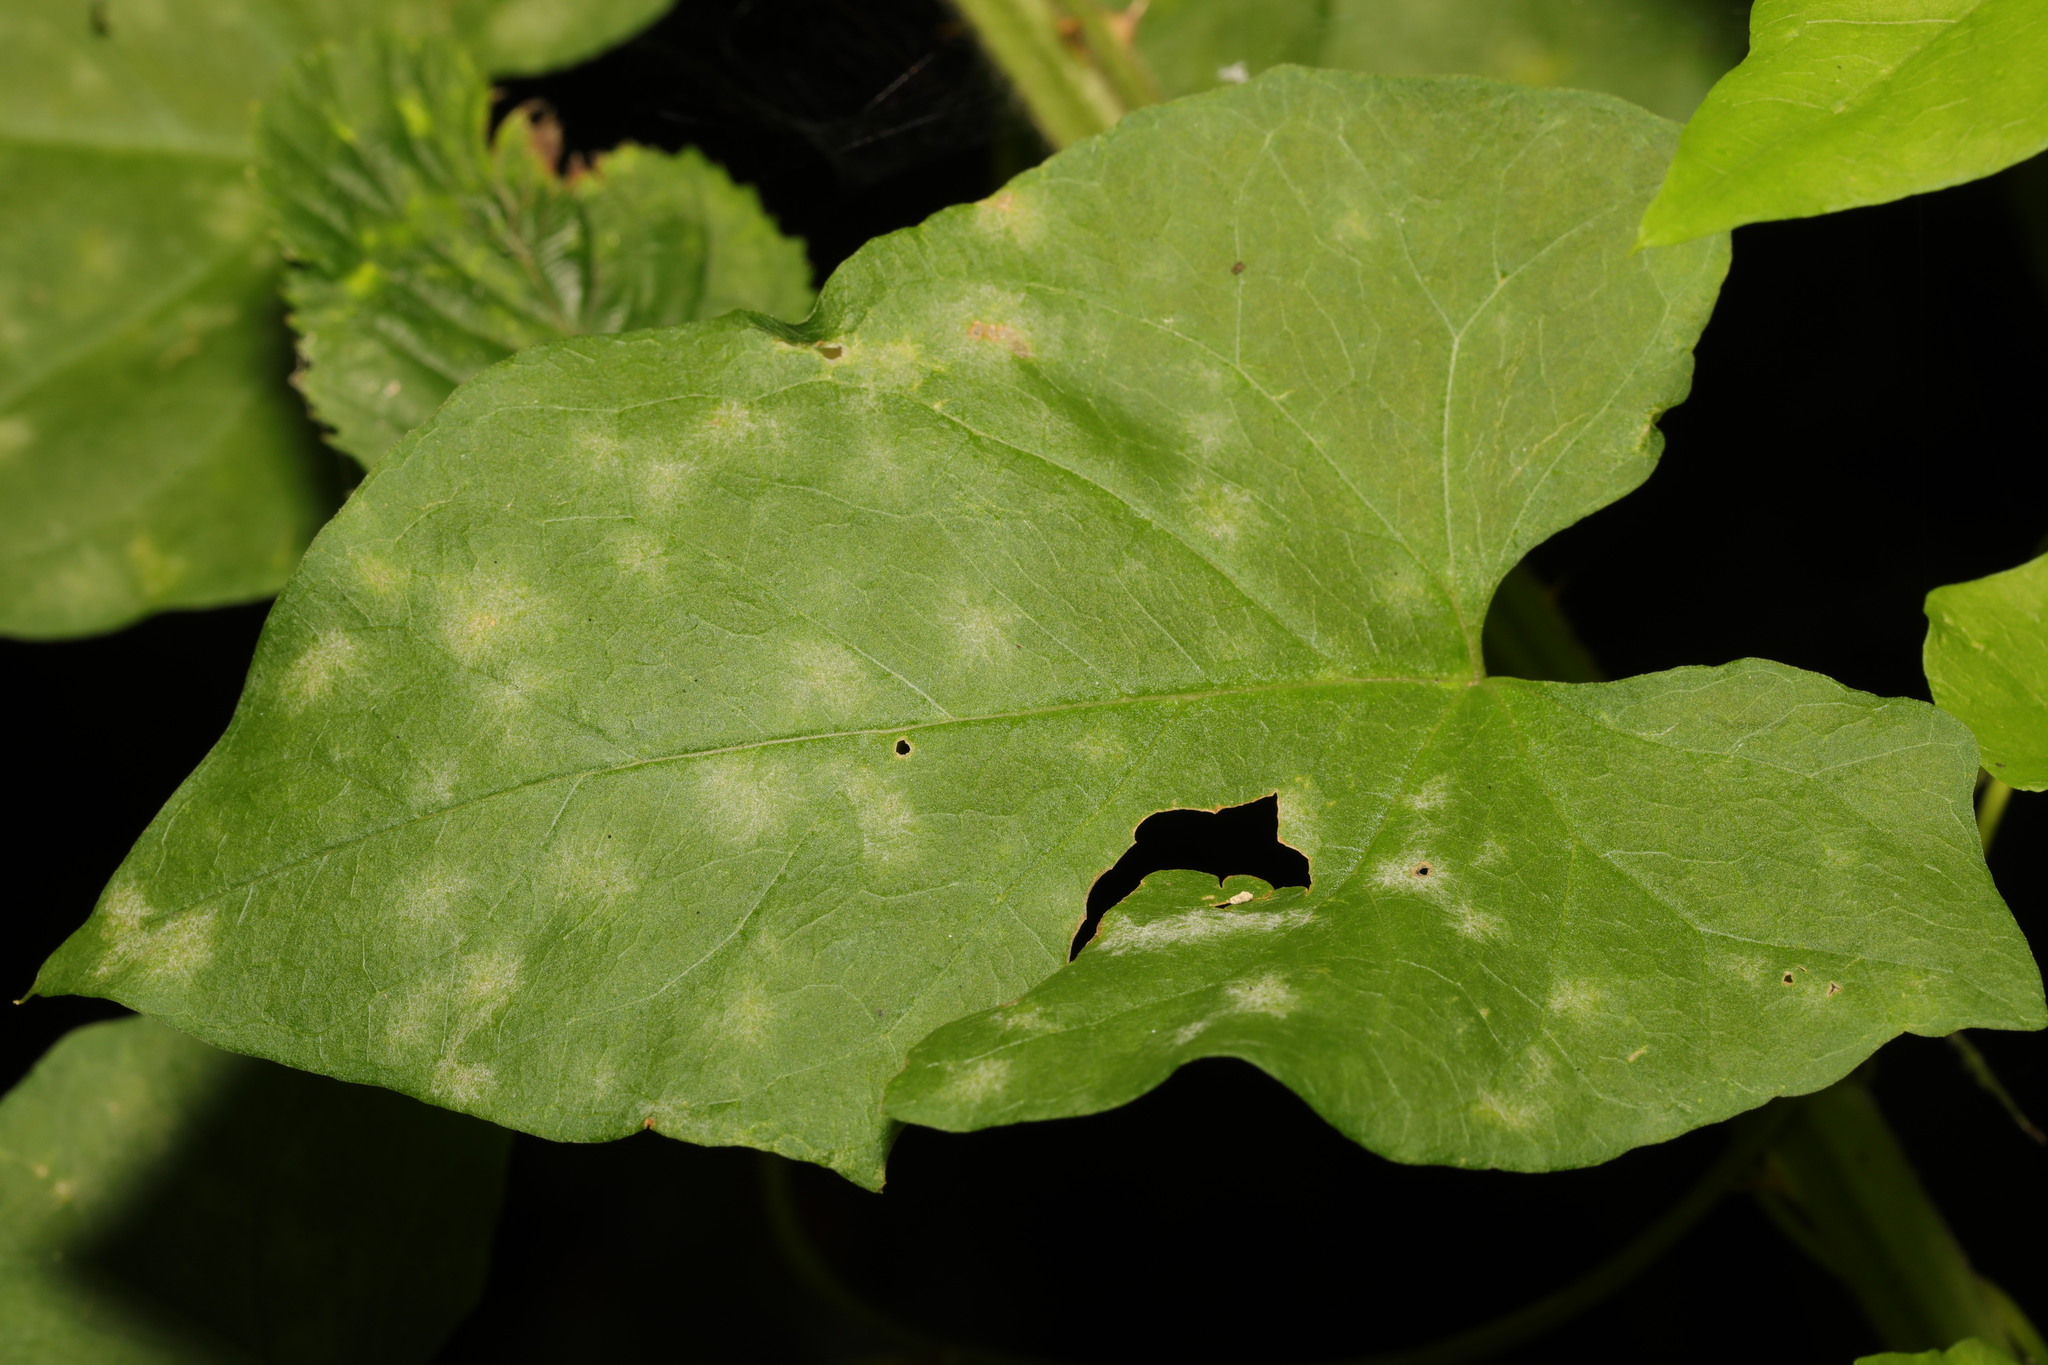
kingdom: Fungi
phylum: Ascomycota
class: Leotiomycetes
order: Helotiales
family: Erysiphaceae
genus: Erysiphe
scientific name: Erysiphe convolvuli
